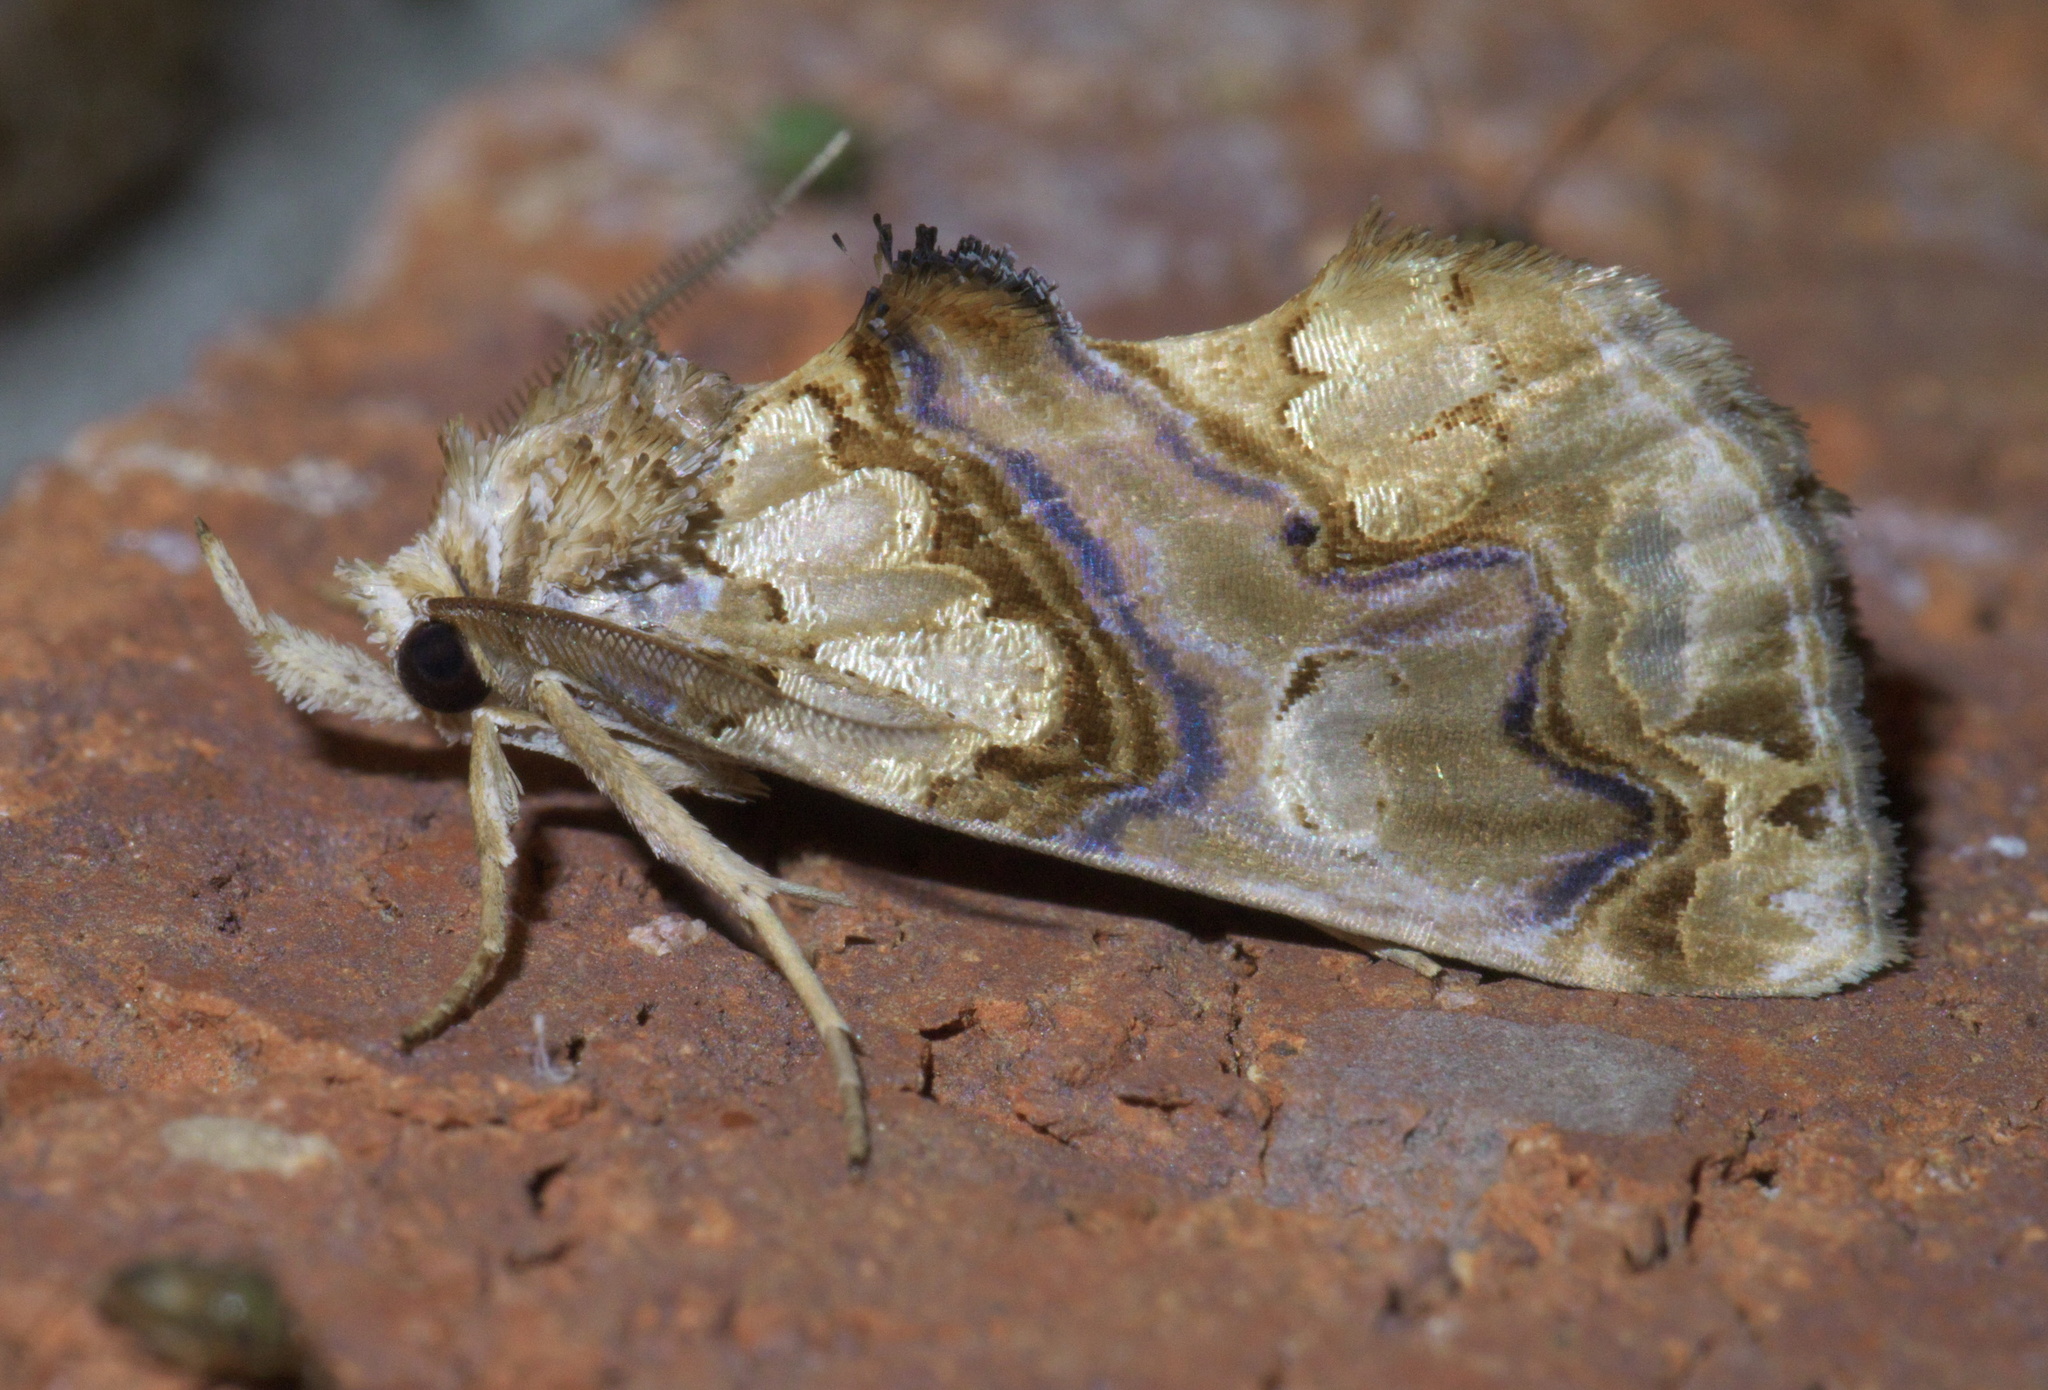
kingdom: Animalia
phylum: Arthropoda
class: Insecta
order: Lepidoptera
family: Erebidae
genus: Plusiodonta
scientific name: Plusiodonta compressipalpis
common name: Moonseed moth
